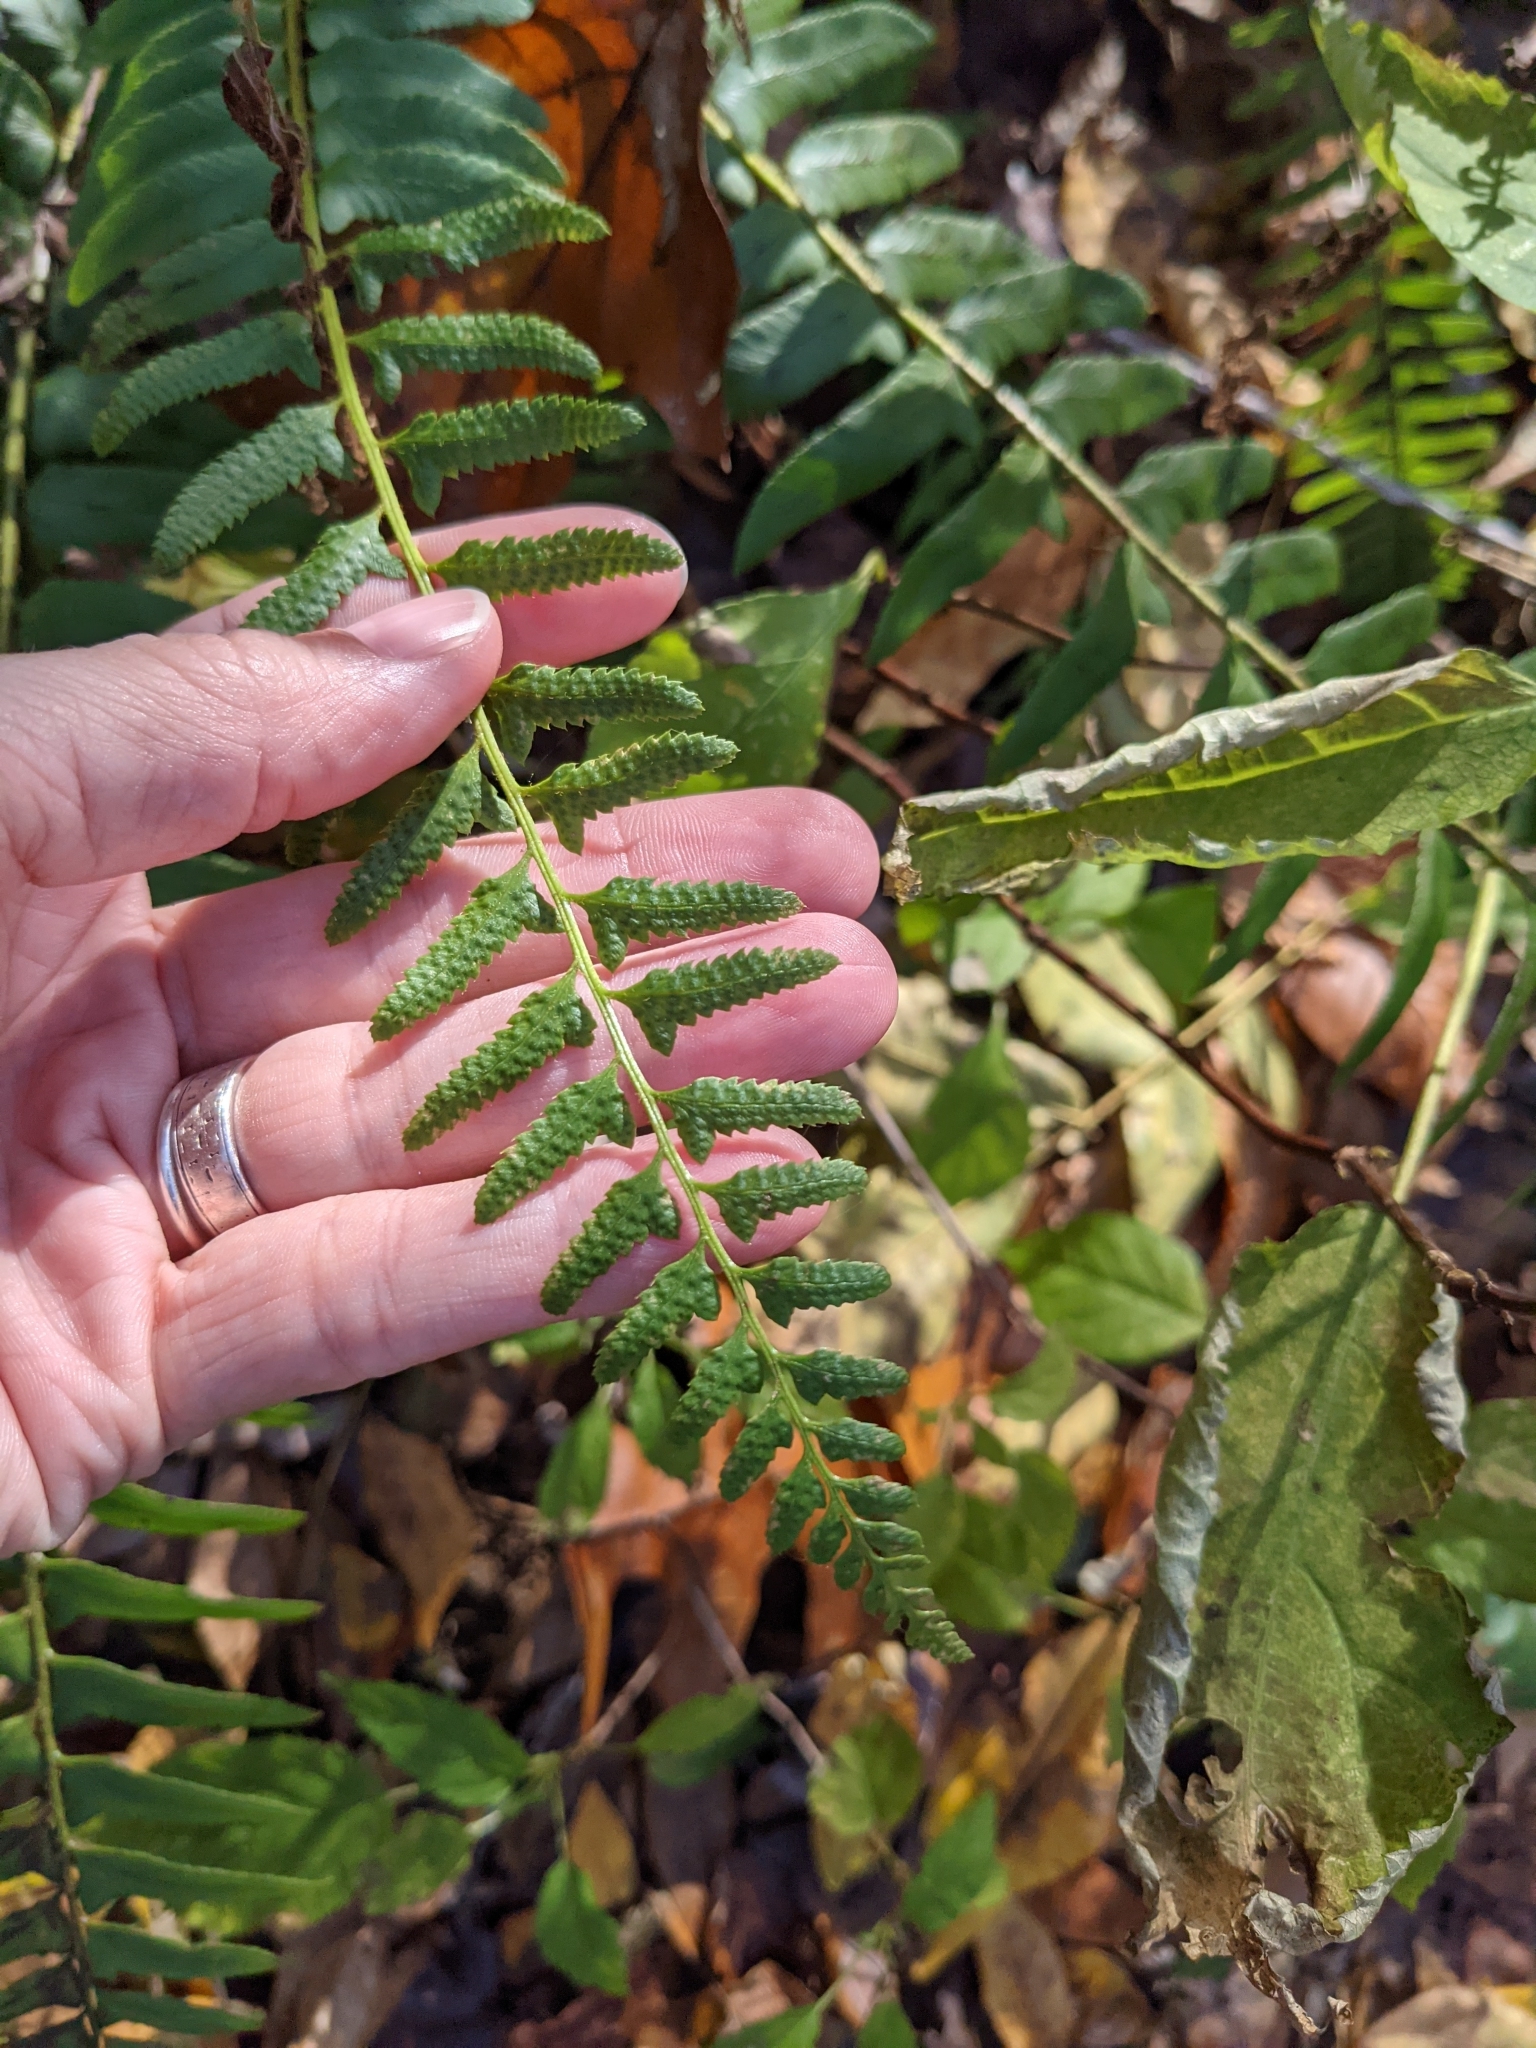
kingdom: Plantae
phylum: Tracheophyta
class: Polypodiopsida
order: Polypodiales
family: Dryopteridaceae
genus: Polystichum
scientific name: Polystichum acrostichoides
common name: Christmas fern
